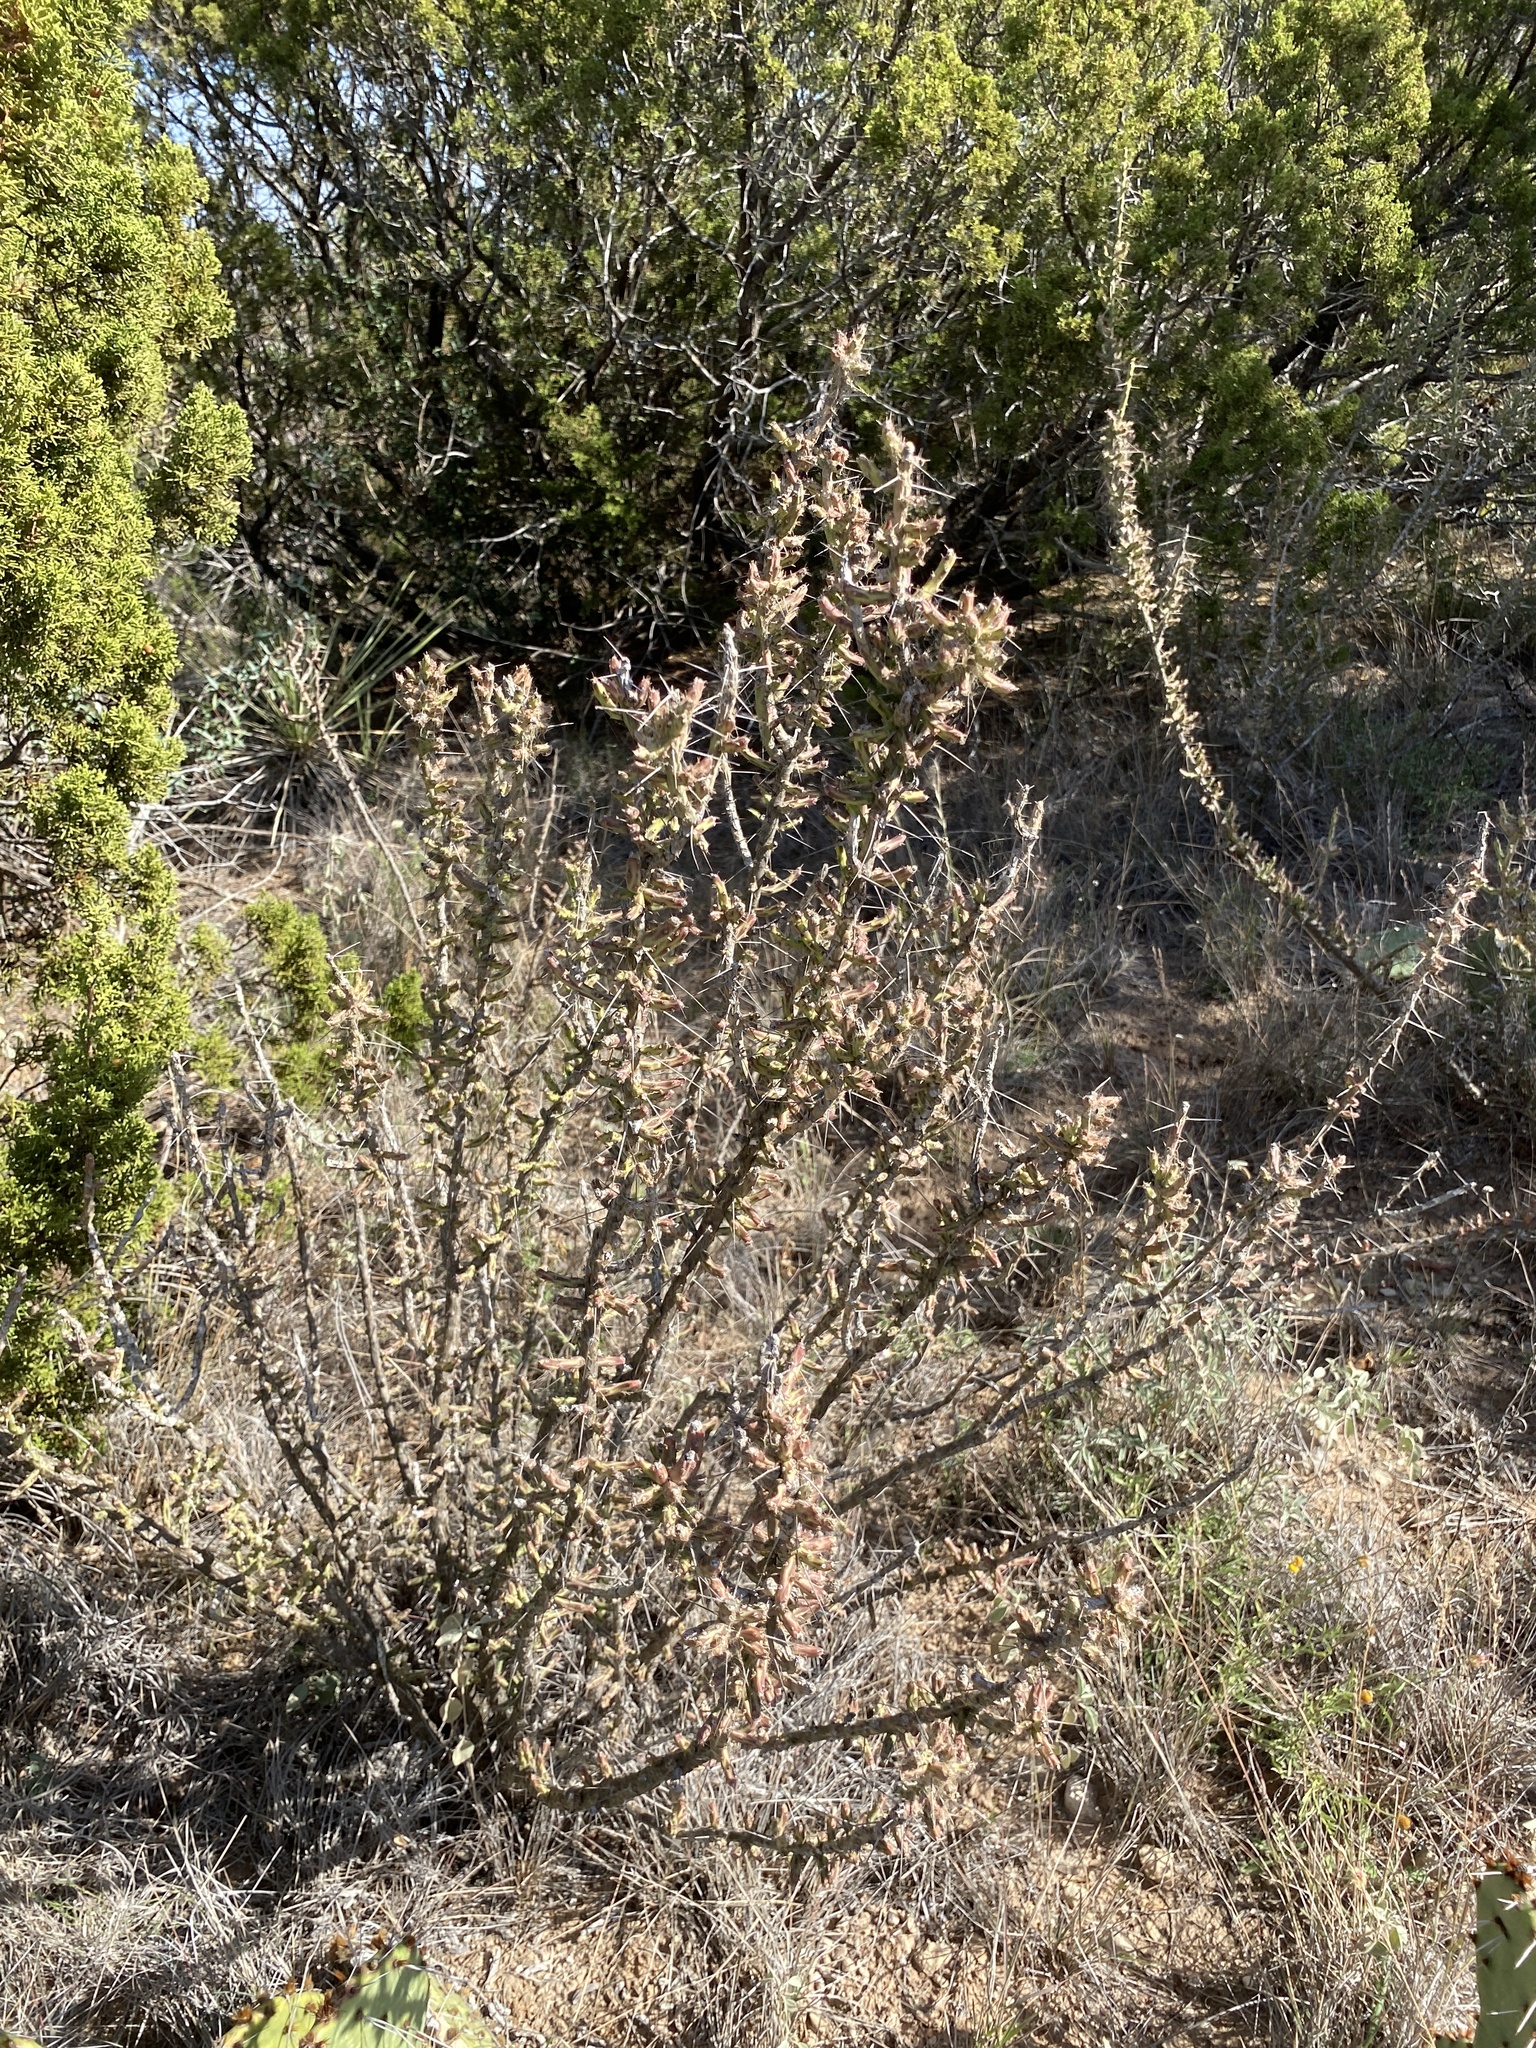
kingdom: Plantae
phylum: Tracheophyta
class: Magnoliopsida
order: Caryophyllales
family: Cactaceae
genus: Cylindropuntia
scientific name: Cylindropuntia leptocaulis
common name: Christmas cactus
